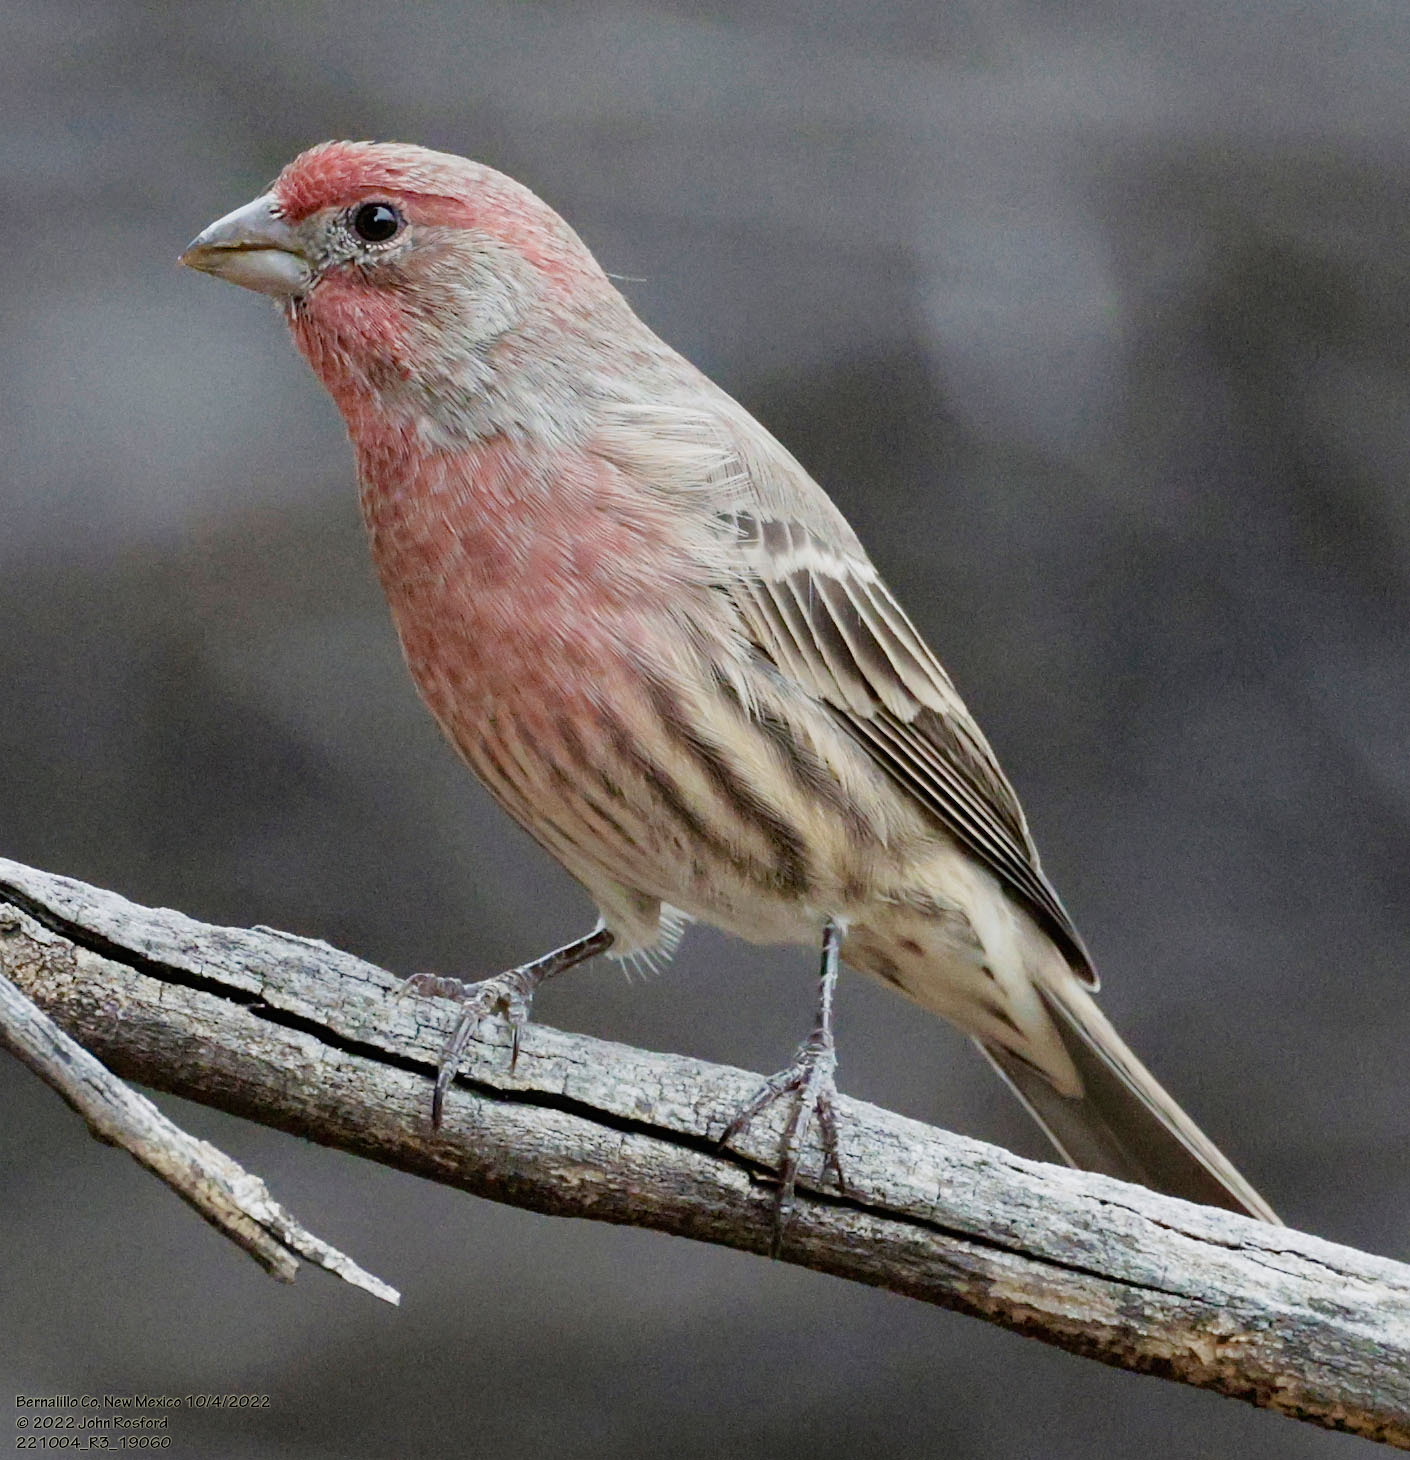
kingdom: Animalia
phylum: Chordata
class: Aves
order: Passeriformes
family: Fringillidae
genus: Haemorhous
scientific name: Haemorhous mexicanus
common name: House finch
